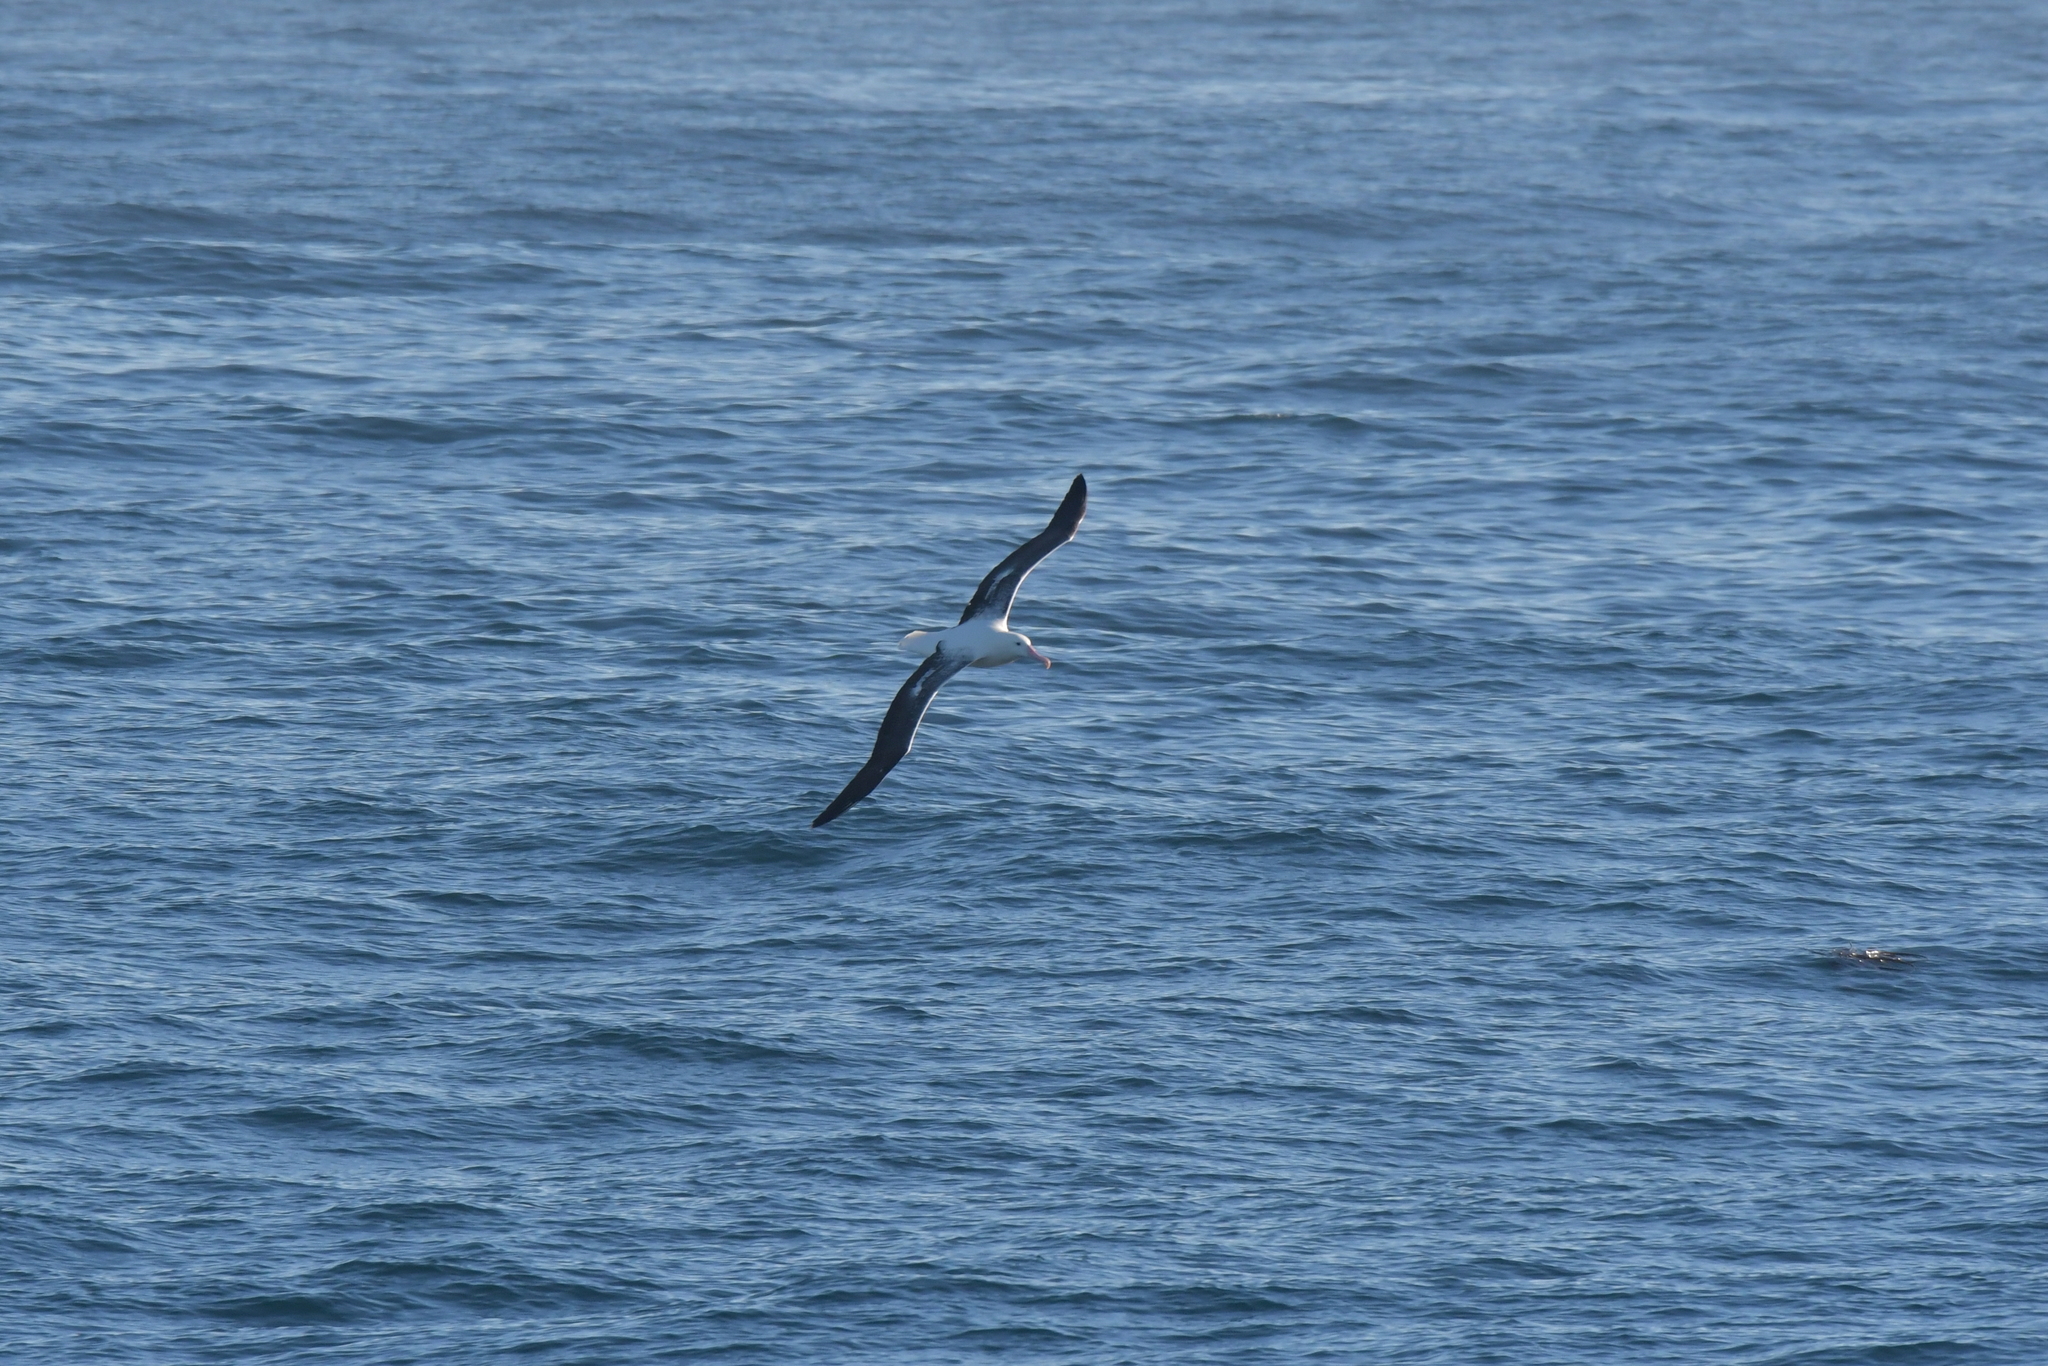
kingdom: Animalia
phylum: Chordata
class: Aves
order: Procellariiformes
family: Diomedeidae
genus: Diomedea
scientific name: Diomedea epomophora
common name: Southern royal albatross
